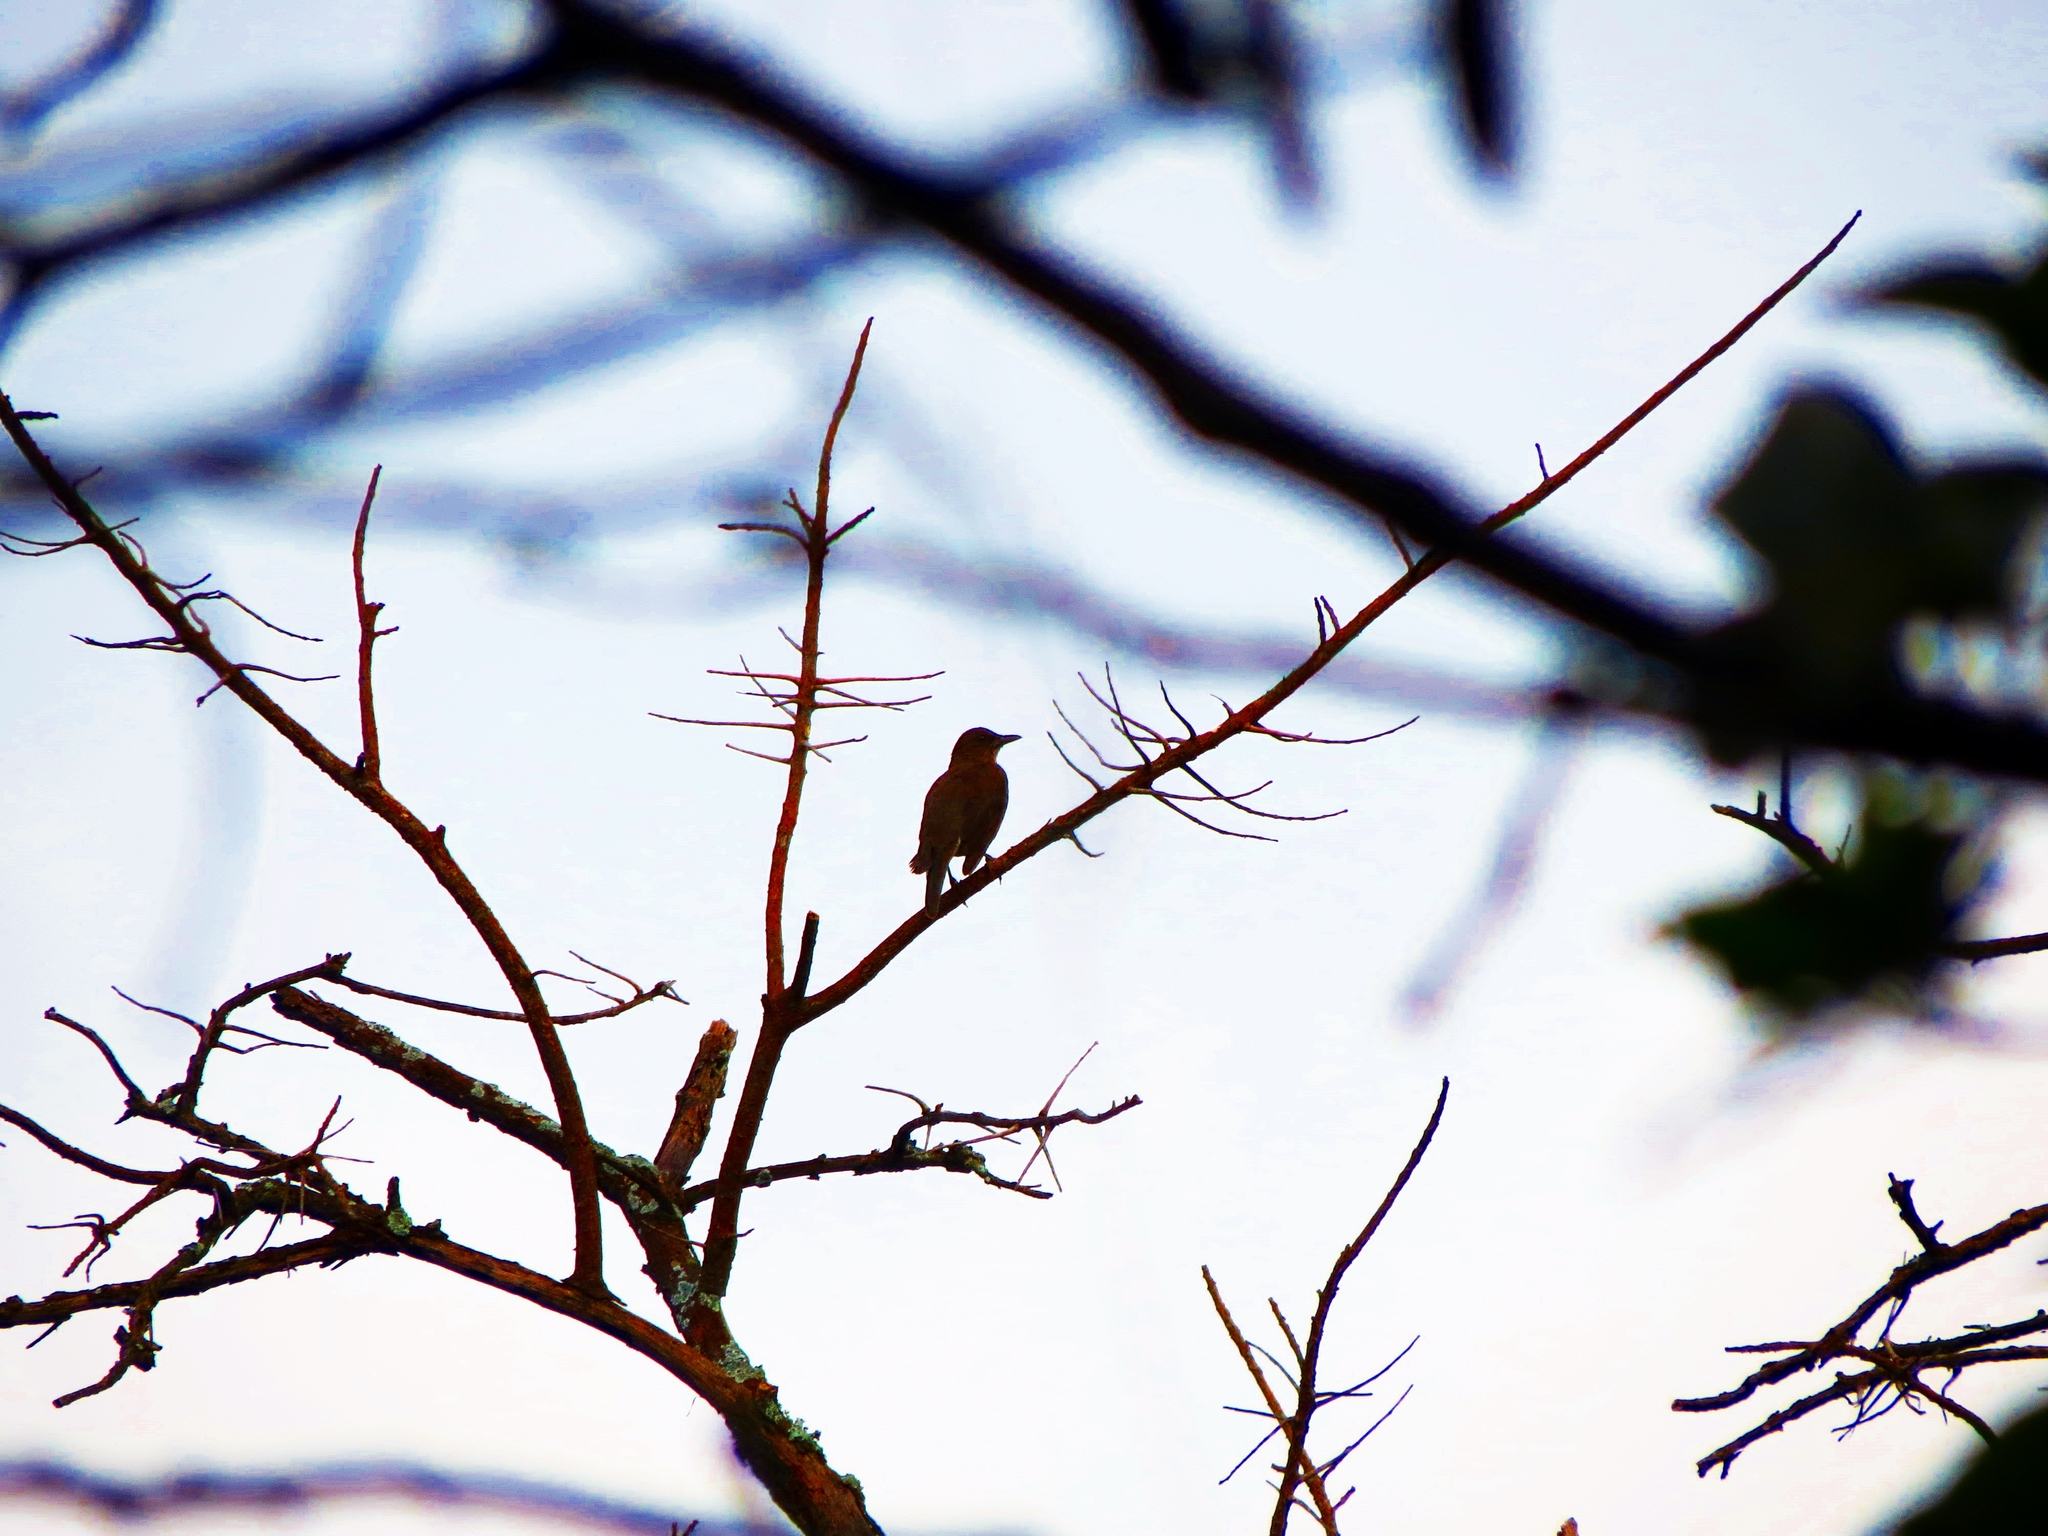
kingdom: Animalia
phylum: Chordata
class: Aves
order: Passeriformes
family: Turdidae
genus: Turdus
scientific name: Turdus ignobilis
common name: Black-billed thrush
